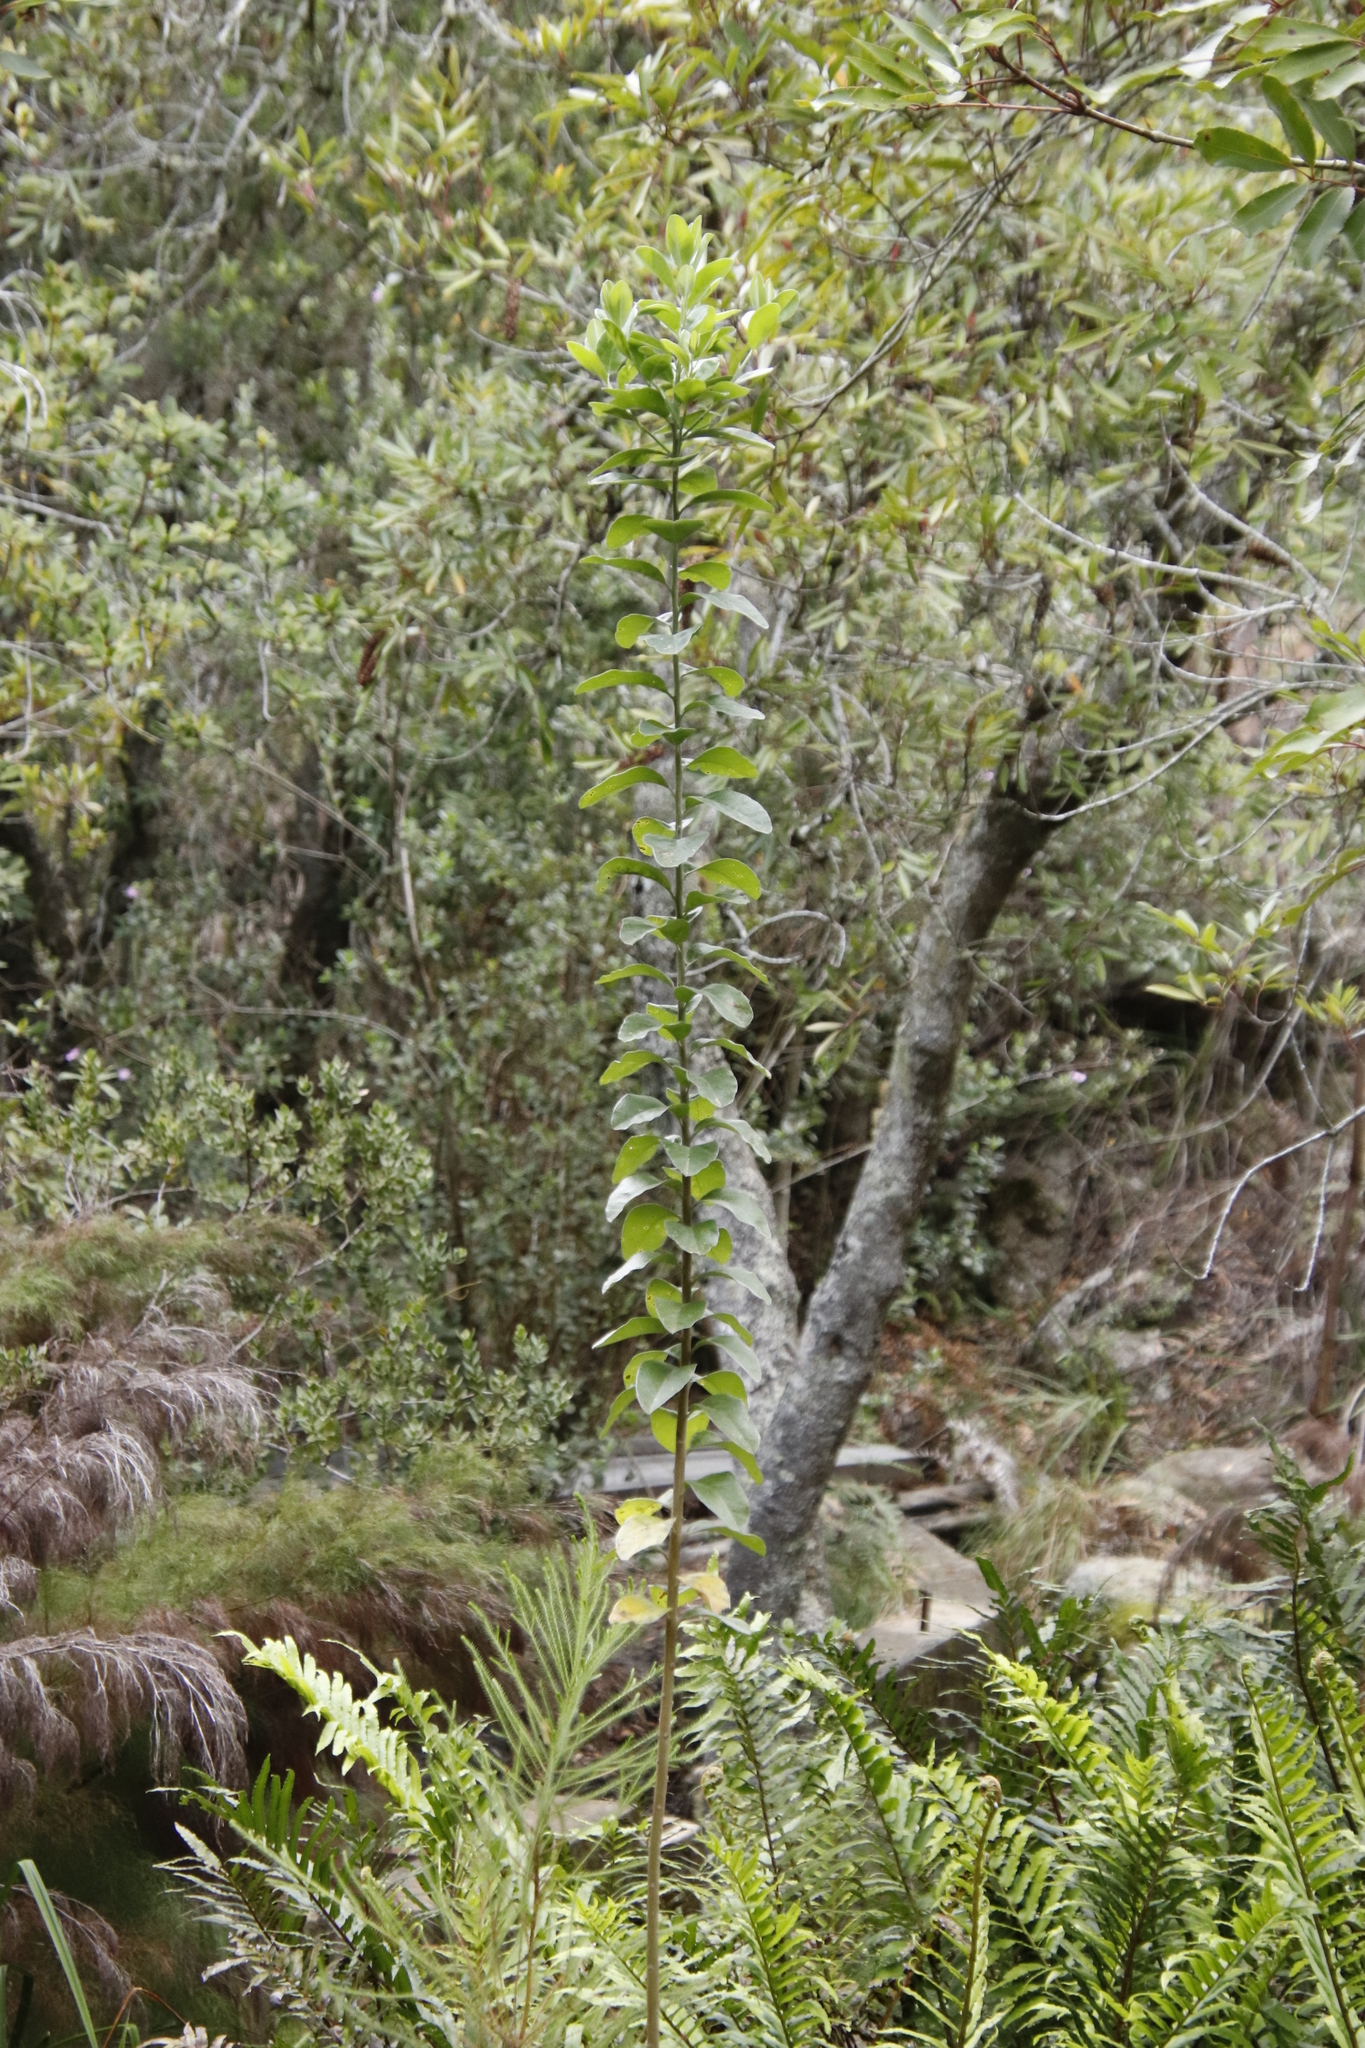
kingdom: Plantae
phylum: Tracheophyta
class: Magnoliopsida
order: Fabales
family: Fabaceae
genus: Podalyria
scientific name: Podalyria calyptrata
